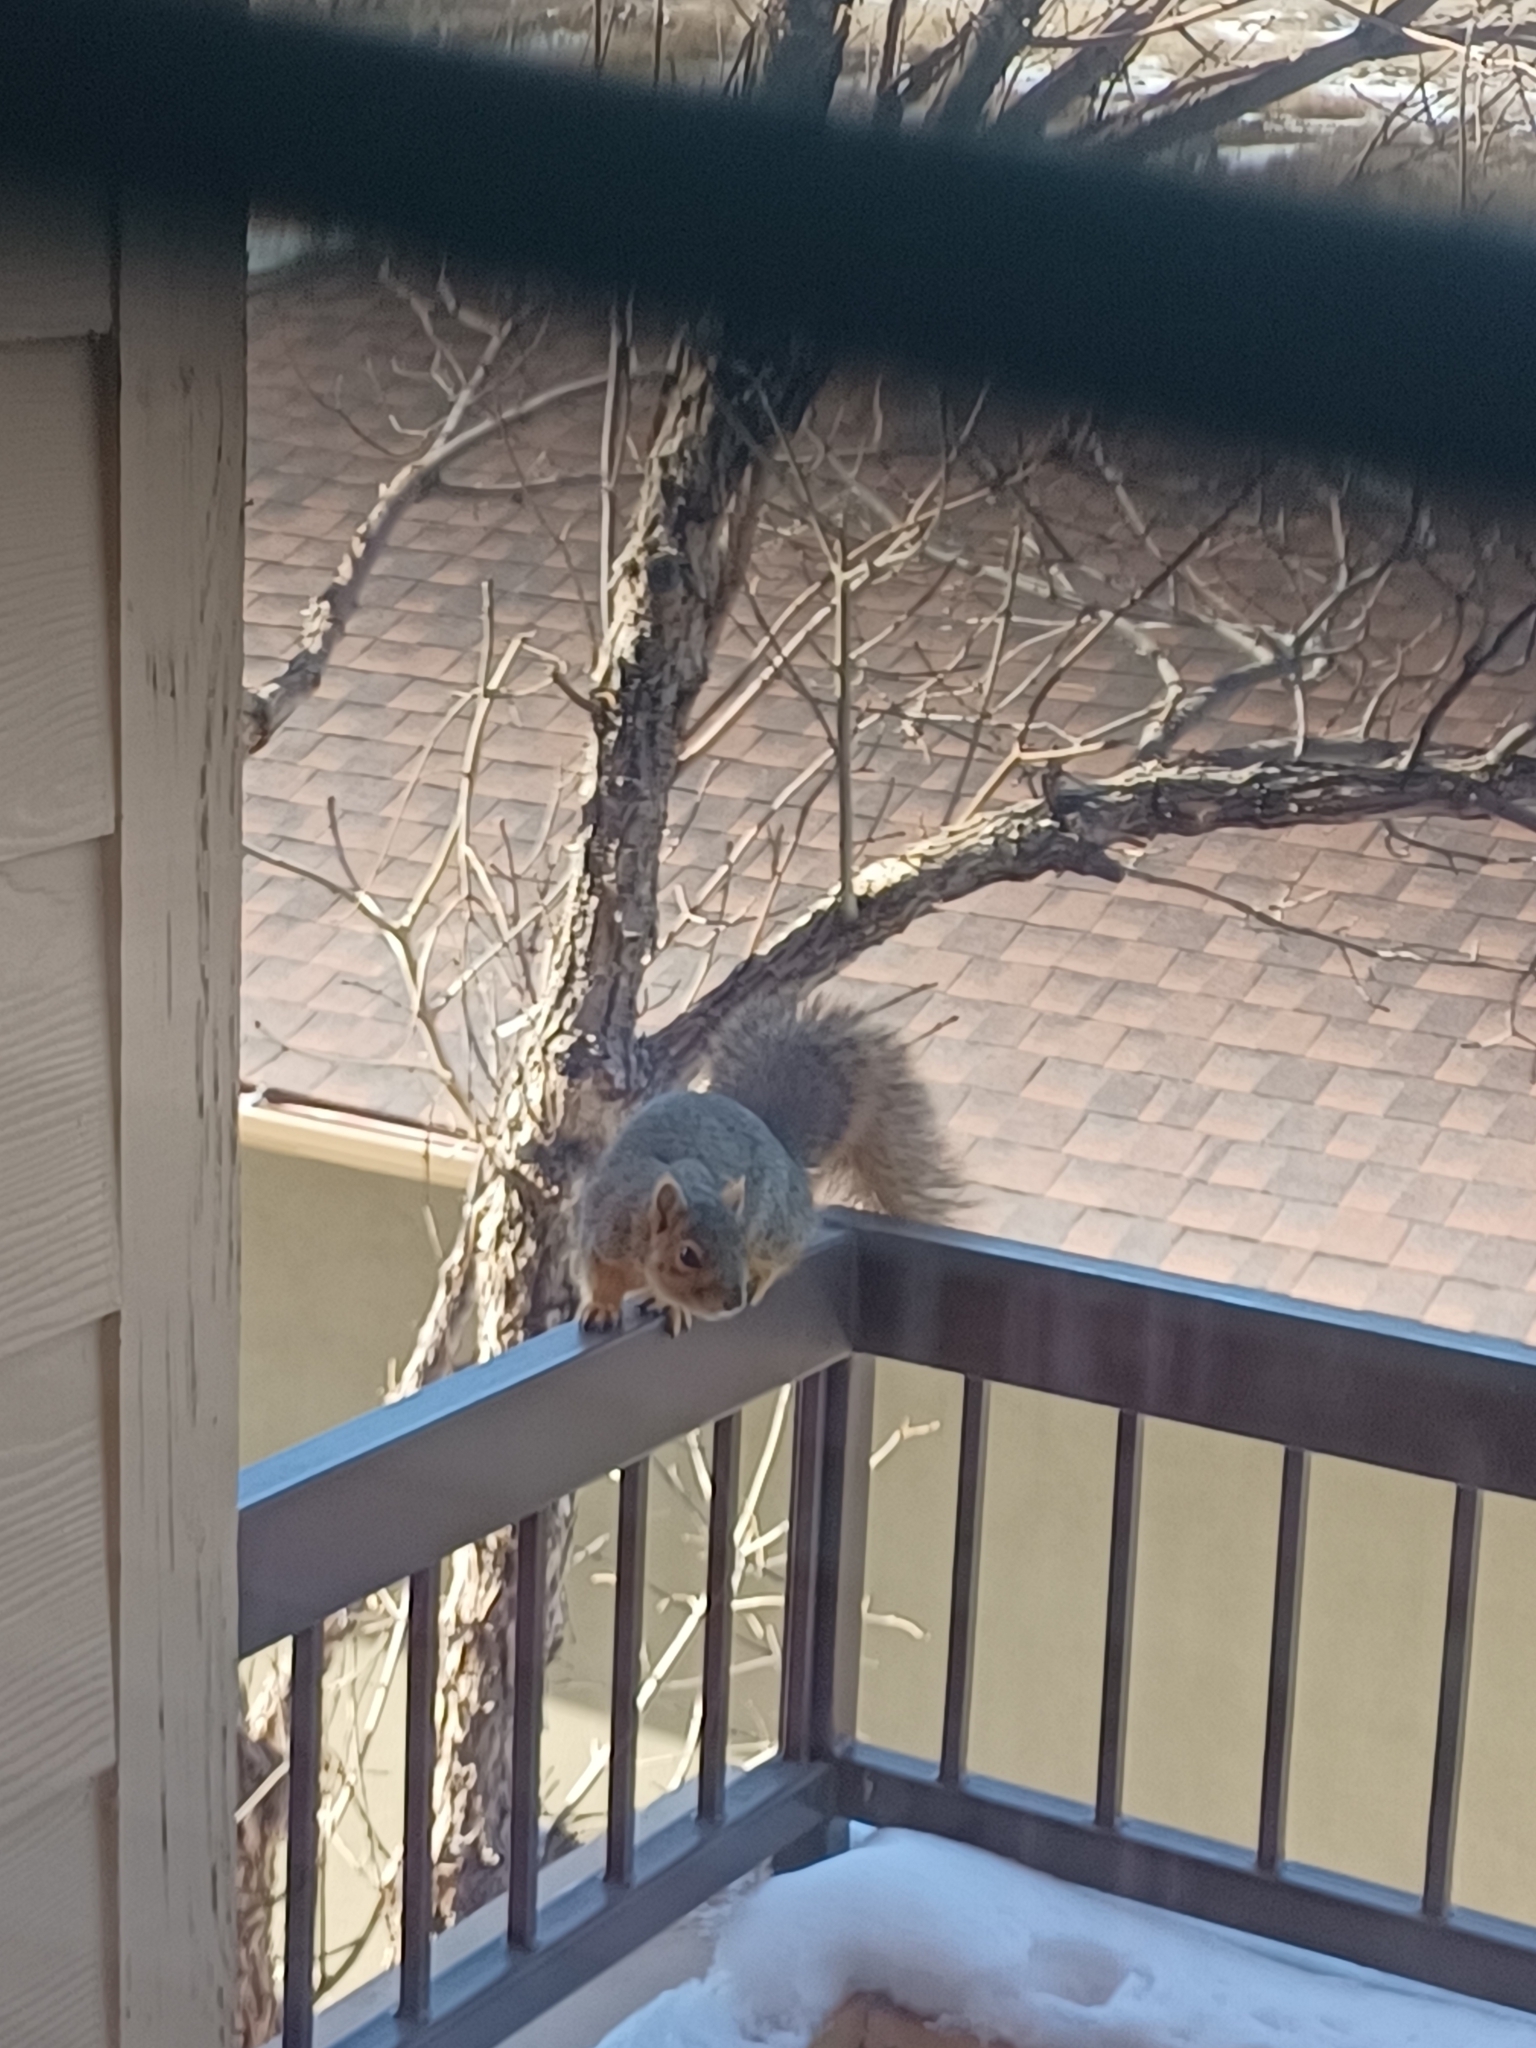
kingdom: Animalia
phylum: Chordata
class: Mammalia
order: Rodentia
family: Sciuridae
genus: Sciurus
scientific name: Sciurus niger
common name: Fox squirrel
